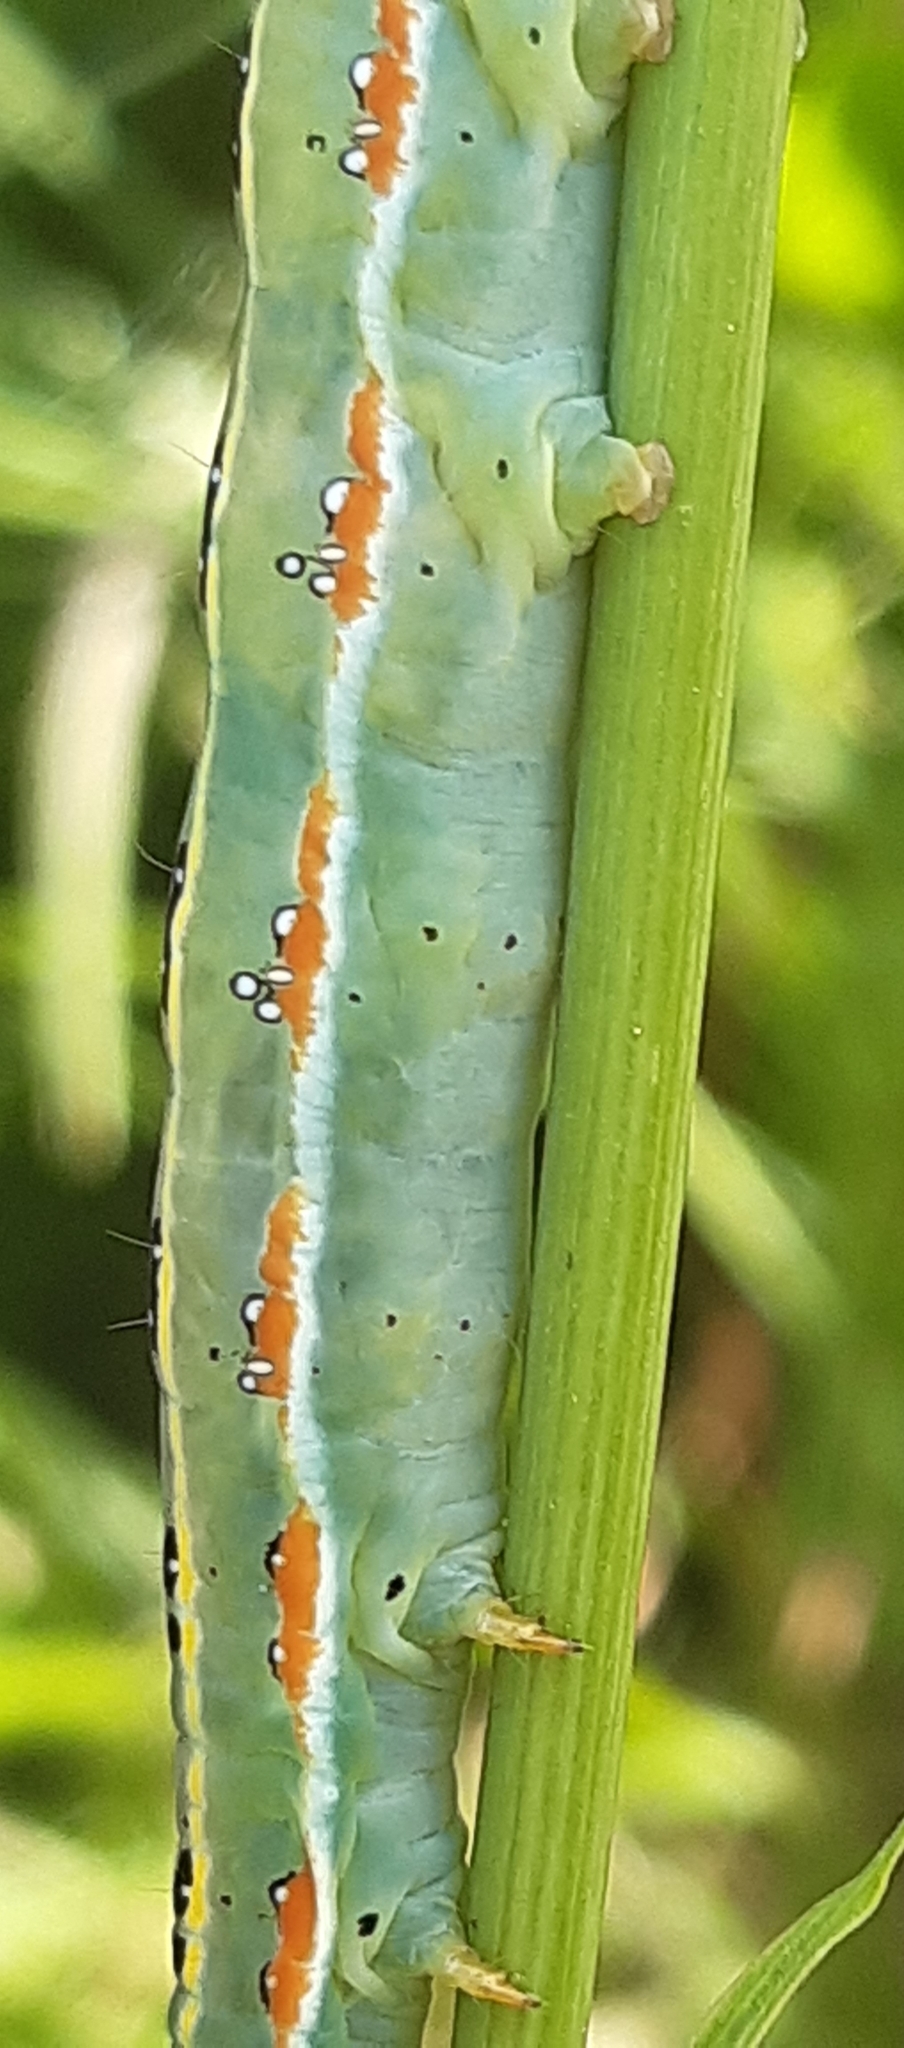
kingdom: Animalia
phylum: Arthropoda
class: Insecta
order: Lepidoptera
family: Noctuidae
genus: Xylena
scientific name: Xylena exsoleta
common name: Sword-grass
